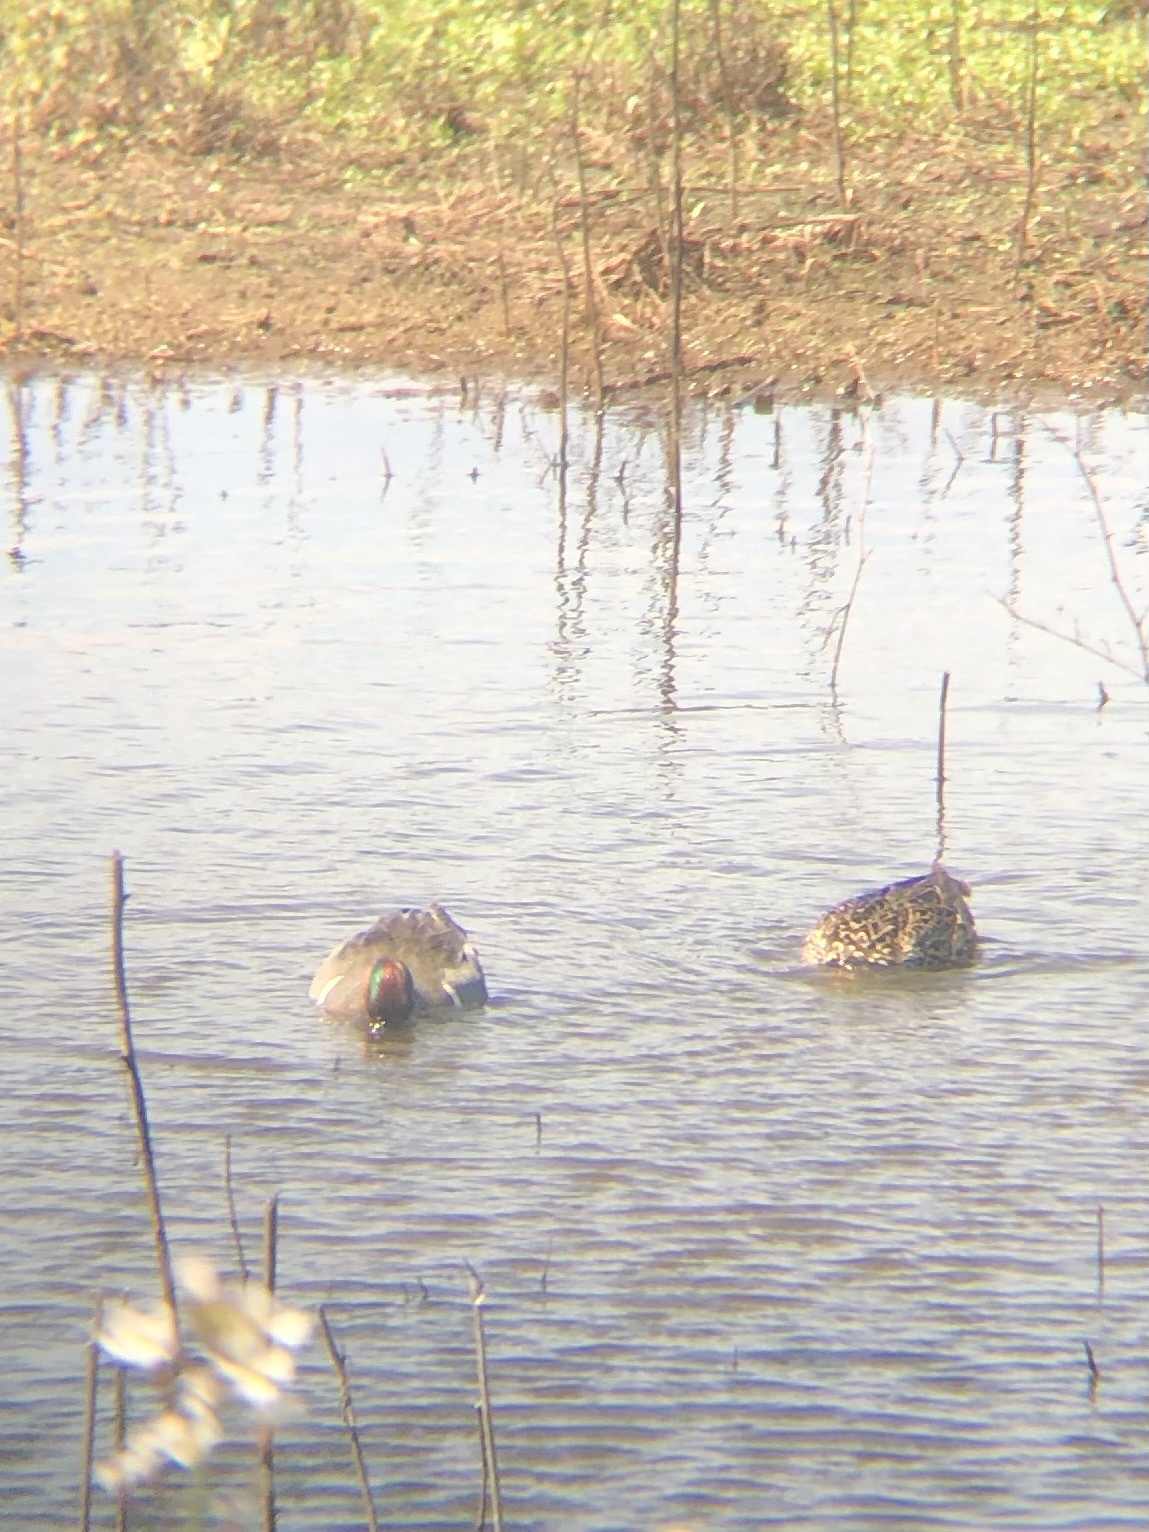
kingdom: Animalia
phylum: Chordata
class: Aves
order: Anseriformes
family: Anatidae
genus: Anas
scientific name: Anas crecca
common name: Eurasian teal
